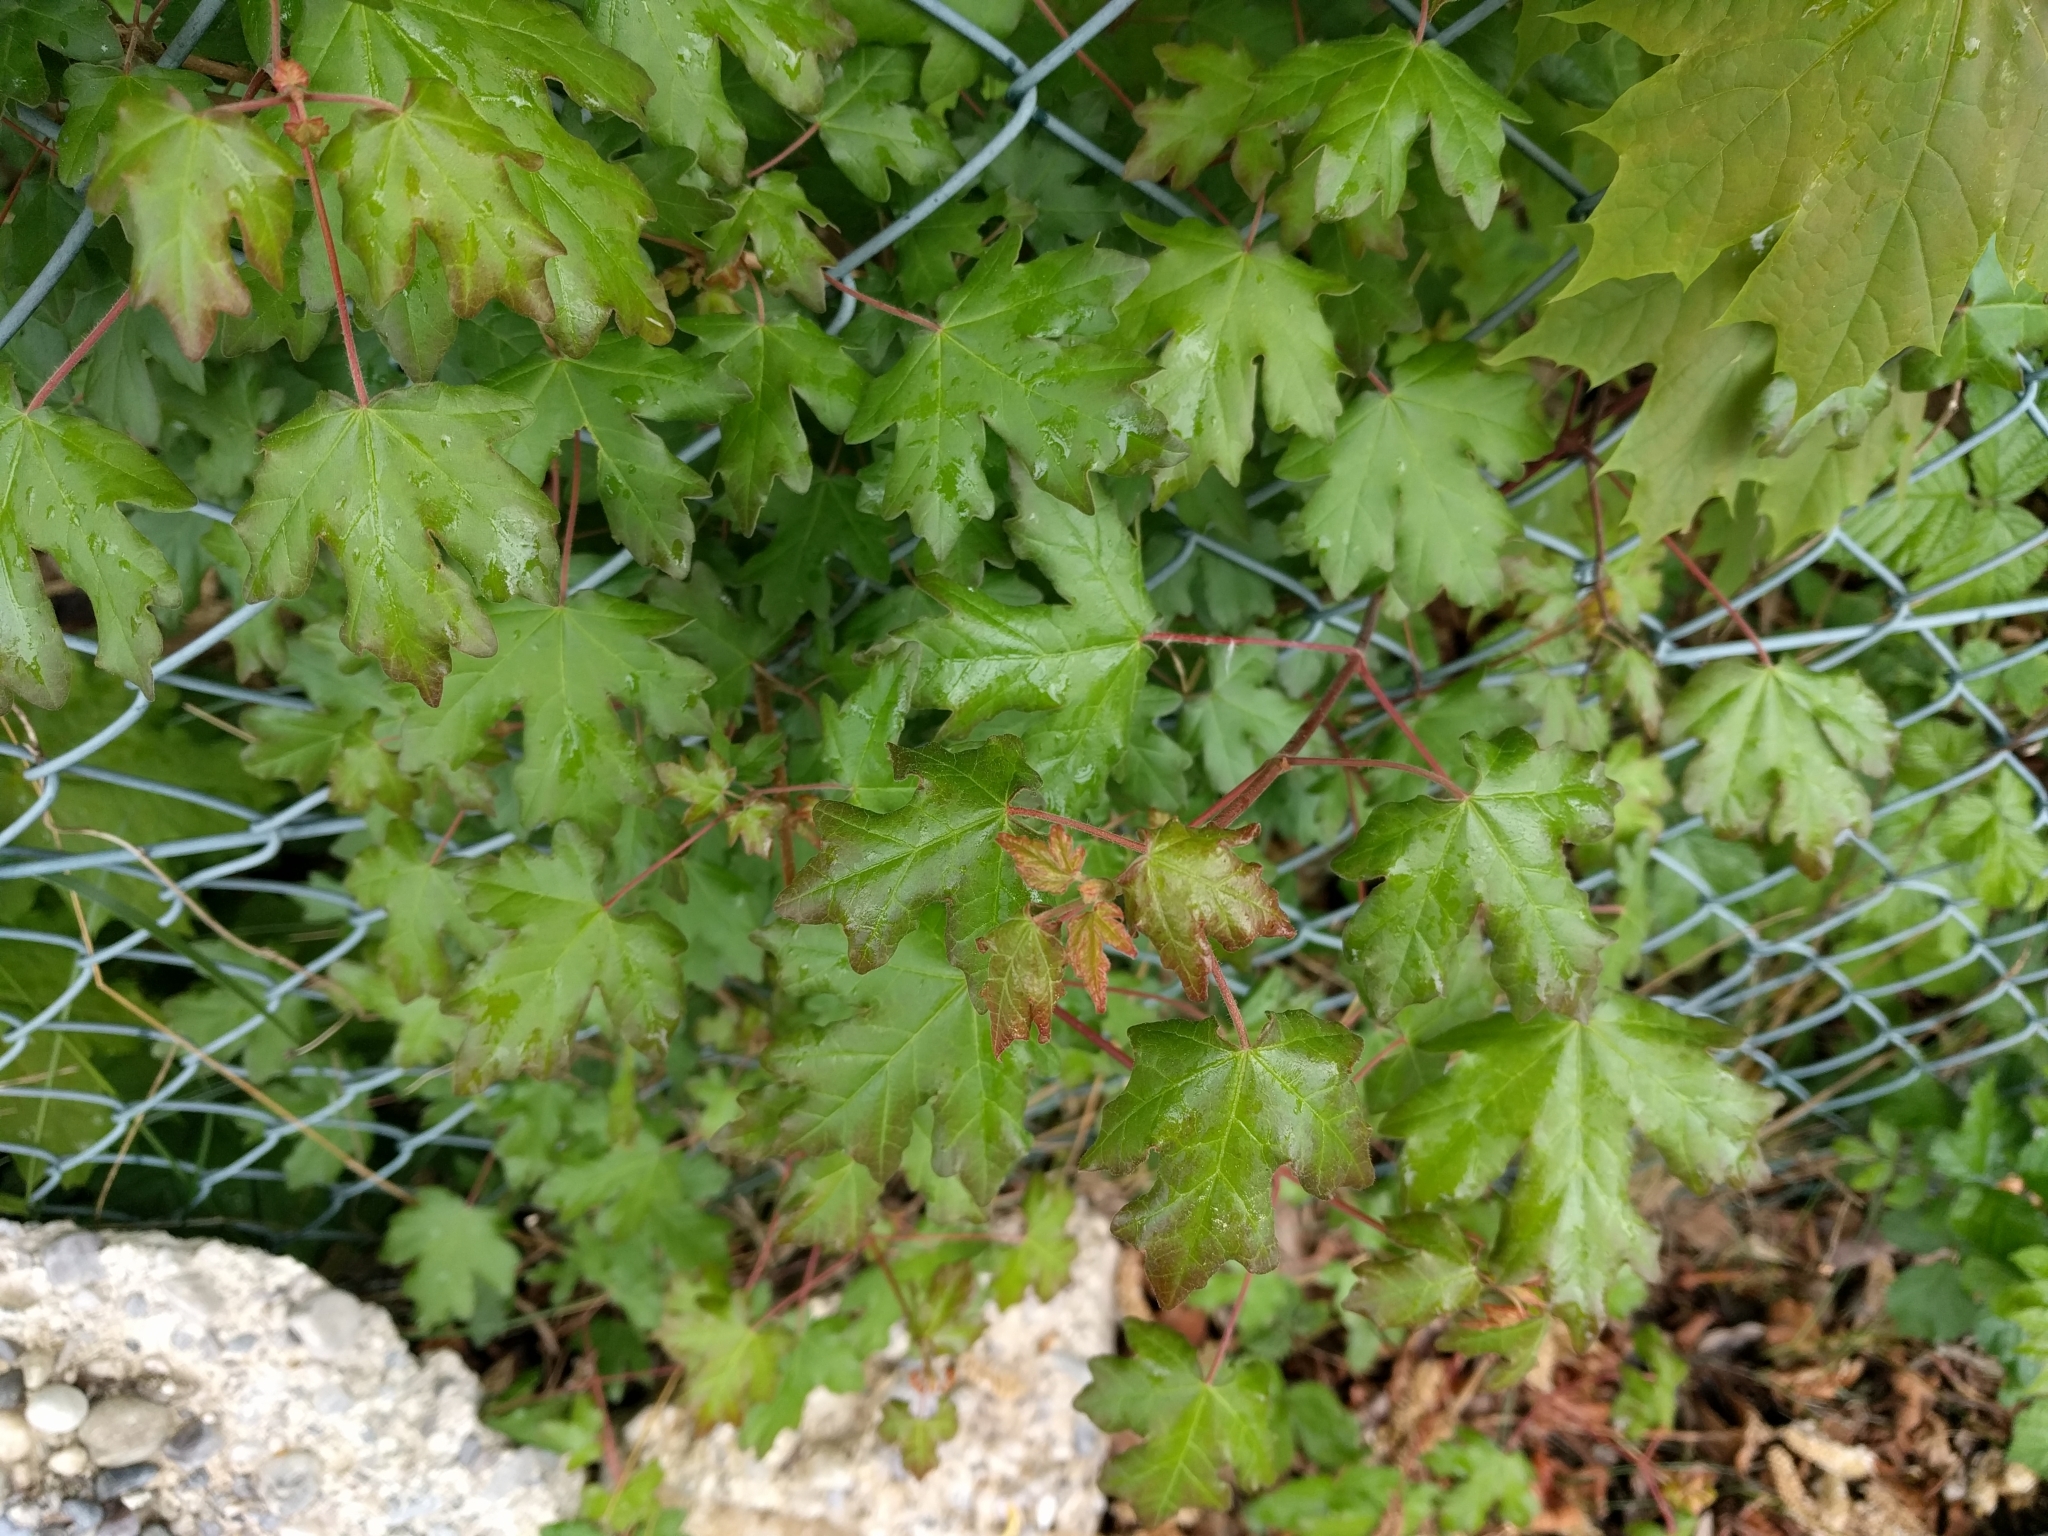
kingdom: Plantae
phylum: Tracheophyta
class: Magnoliopsida
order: Sapindales
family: Sapindaceae
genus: Acer
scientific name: Acer campestre
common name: Field maple
